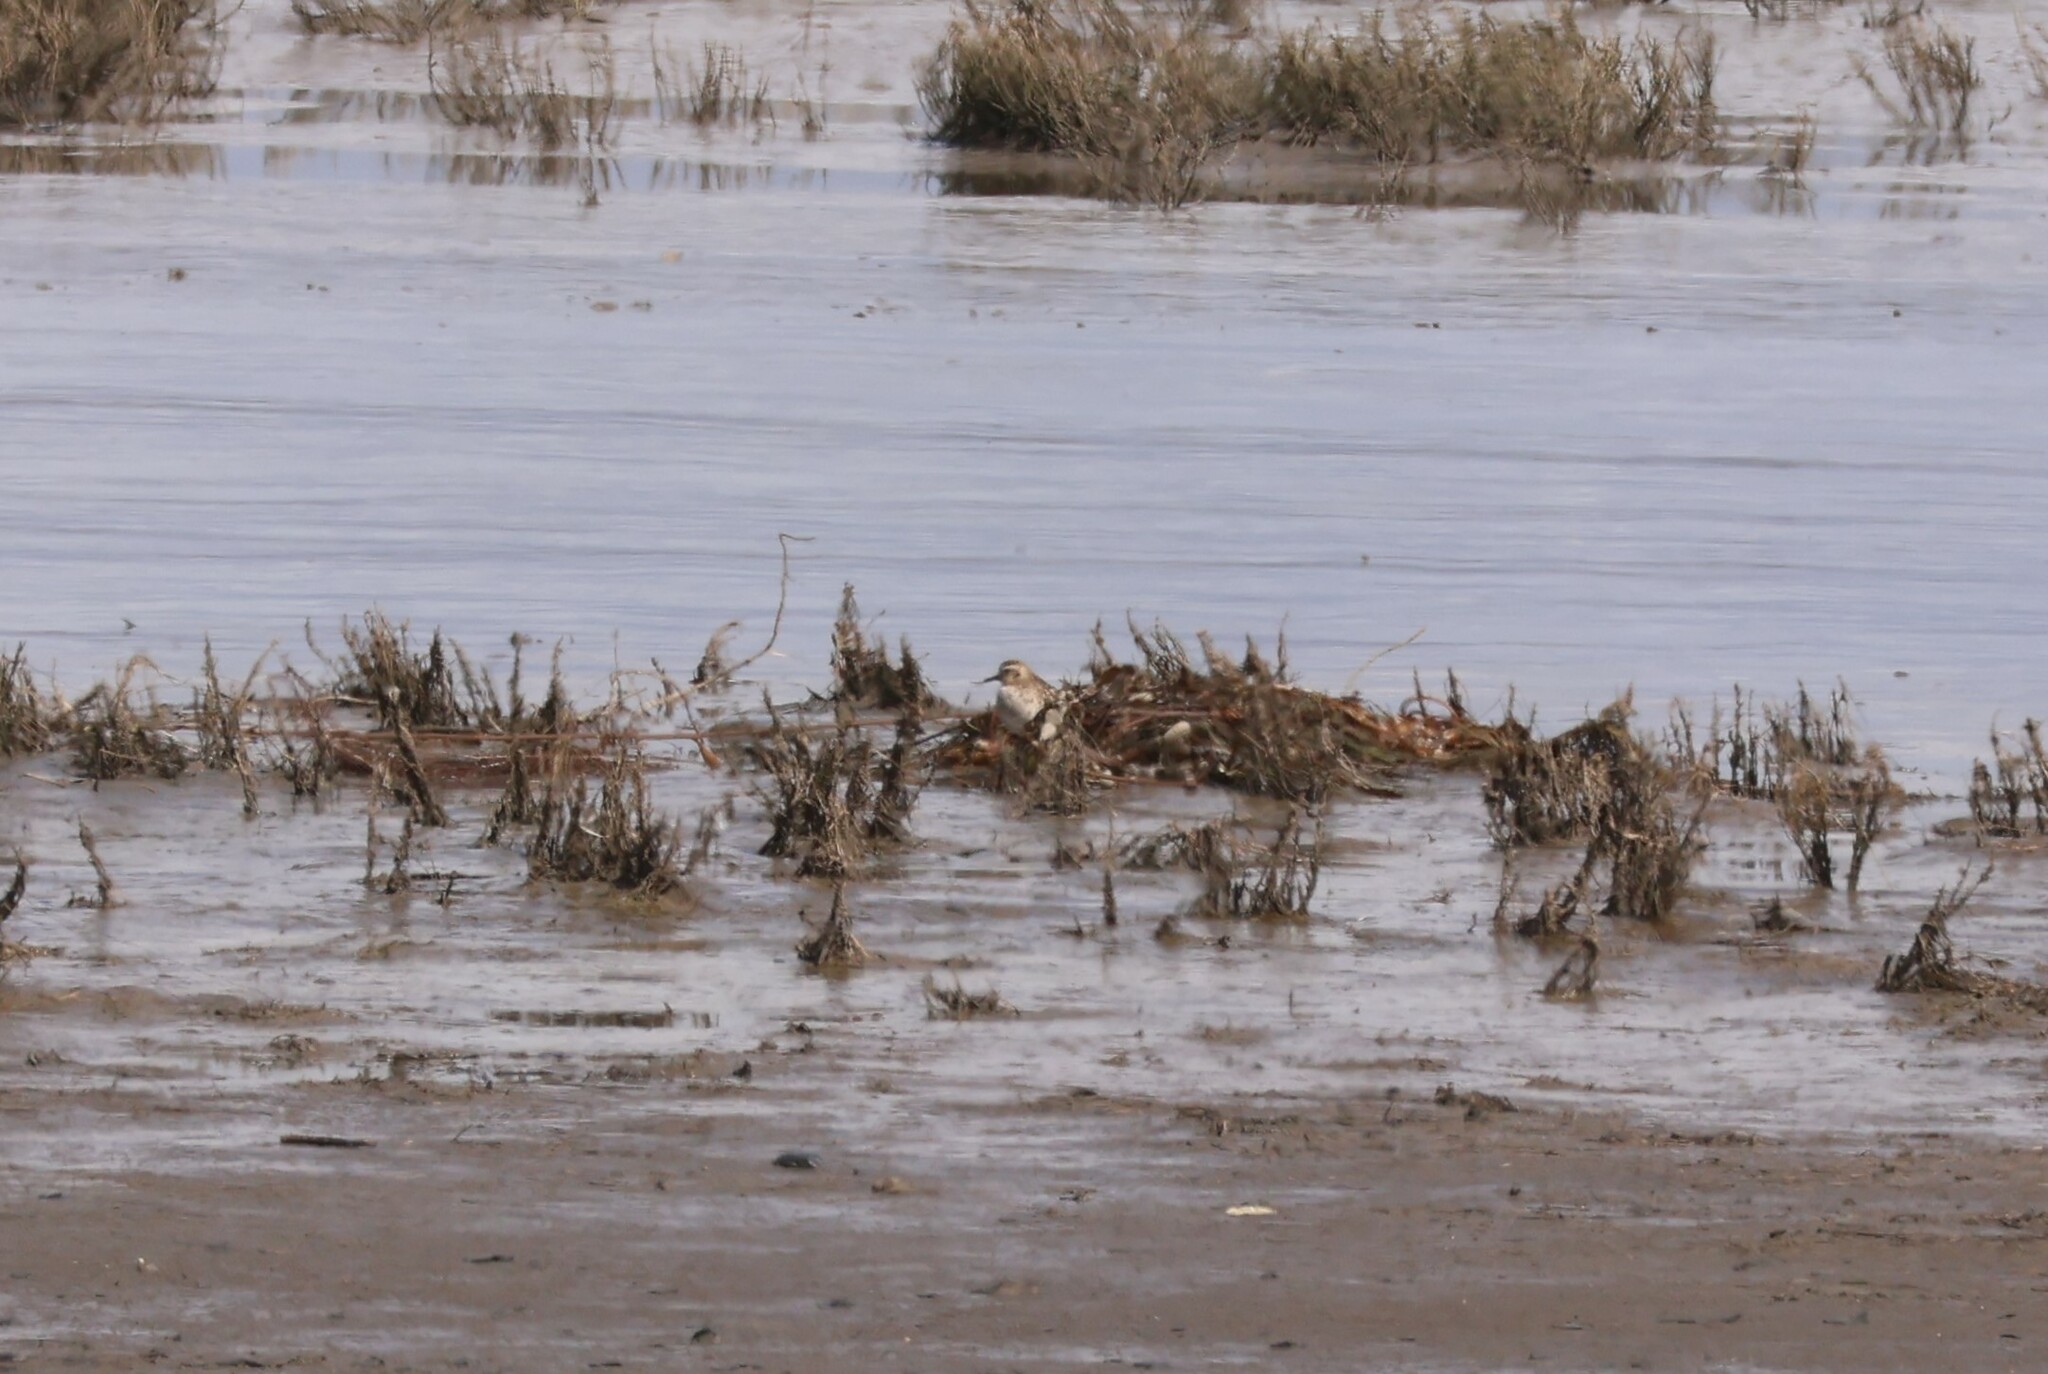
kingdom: Animalia
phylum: Chordata
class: Aves
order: Charadriiformes
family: Charadriidae
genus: Pluvialis
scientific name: Pluvialis fulva
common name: Pacific golden plover
